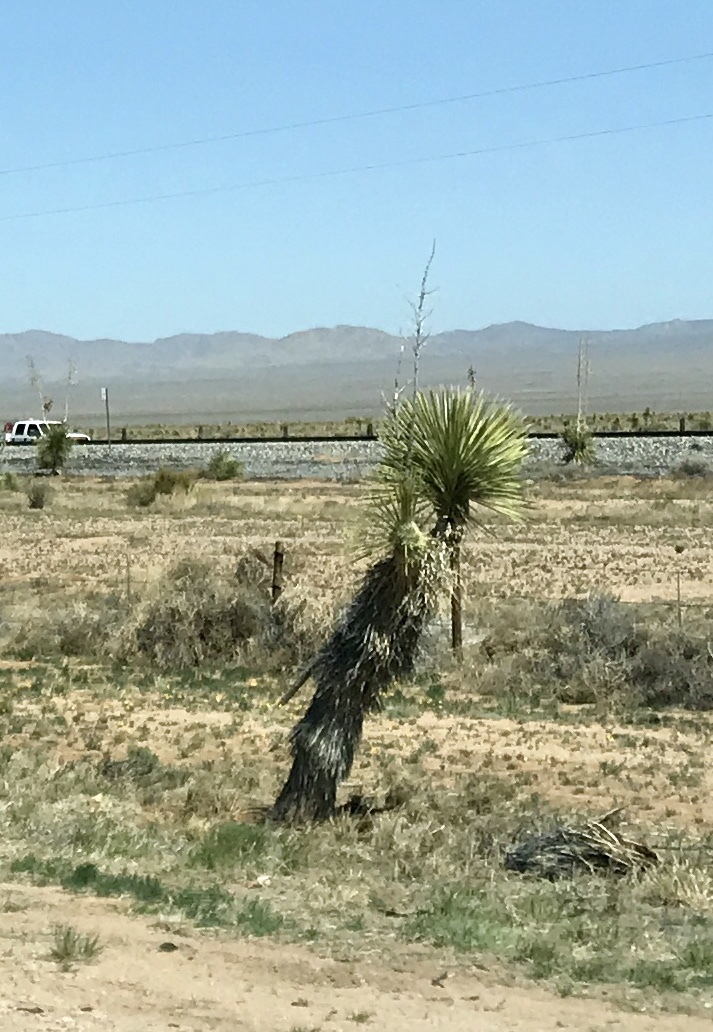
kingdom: Plantae
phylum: Tracheophyta
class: Liliopsida
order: Asparagales
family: Asparagaceae
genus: Yucca
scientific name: Yucca elata
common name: Palmella
